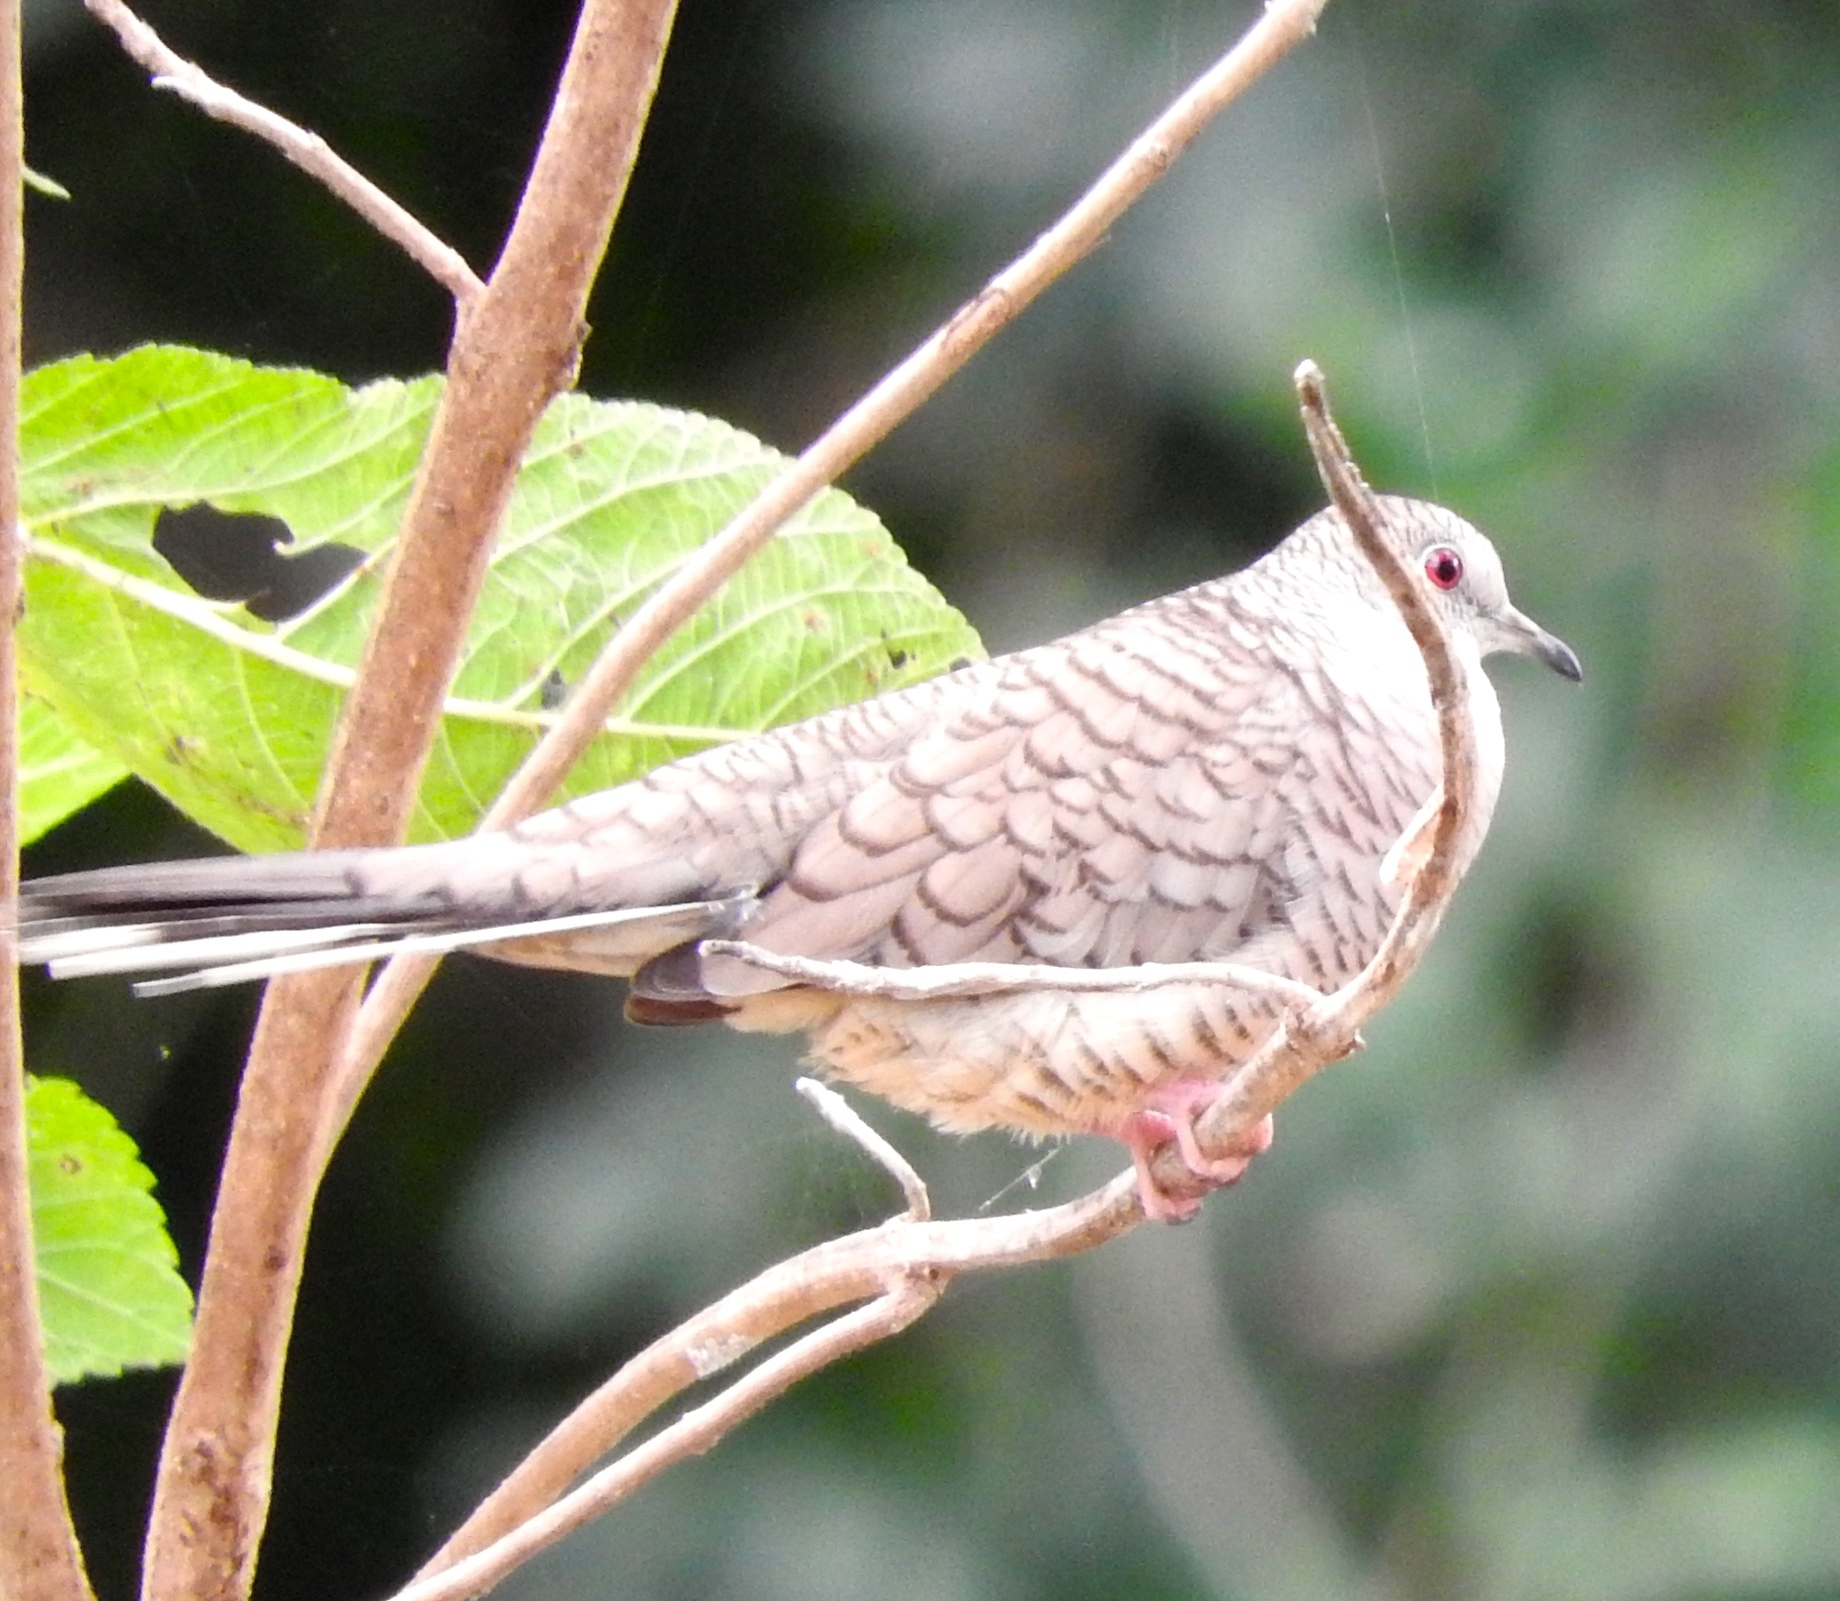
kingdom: Animalia
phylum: Chordata
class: Aves
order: Columbiformes
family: Columbidae
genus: Columbina
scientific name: Columbina inca
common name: Inca dove
